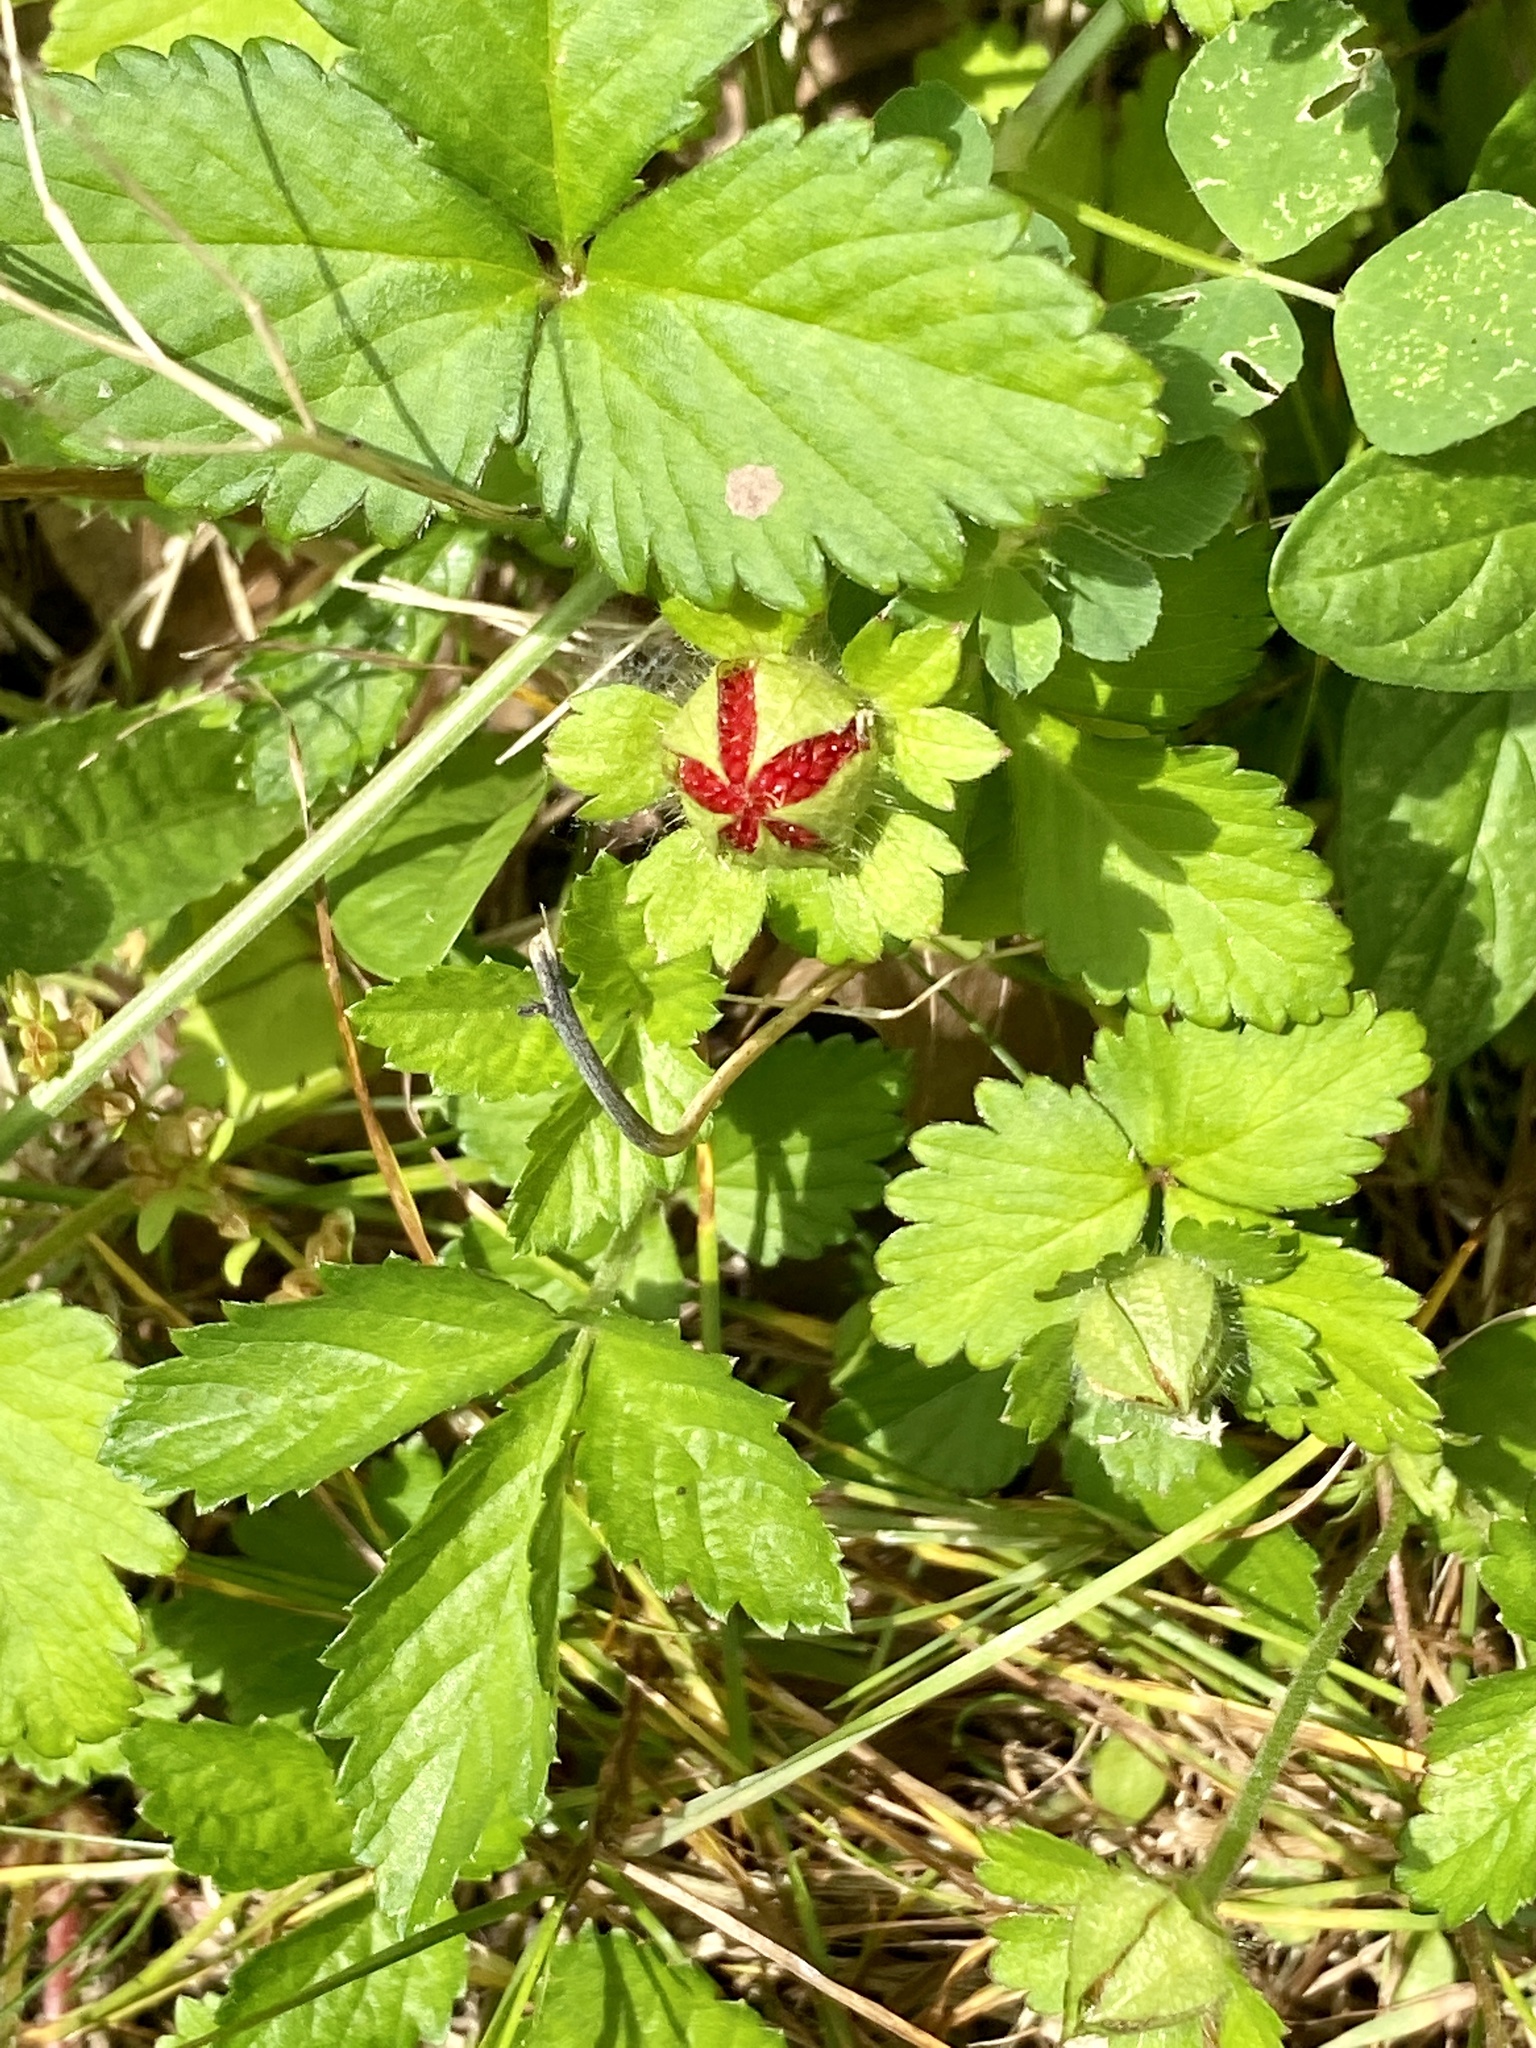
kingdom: Plantae
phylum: Tracheophyta
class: Magnoliopsida
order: Rosales
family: Rosaceae
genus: Potentilla
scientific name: Potentilla indica
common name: Yellow-flowered strawberry
